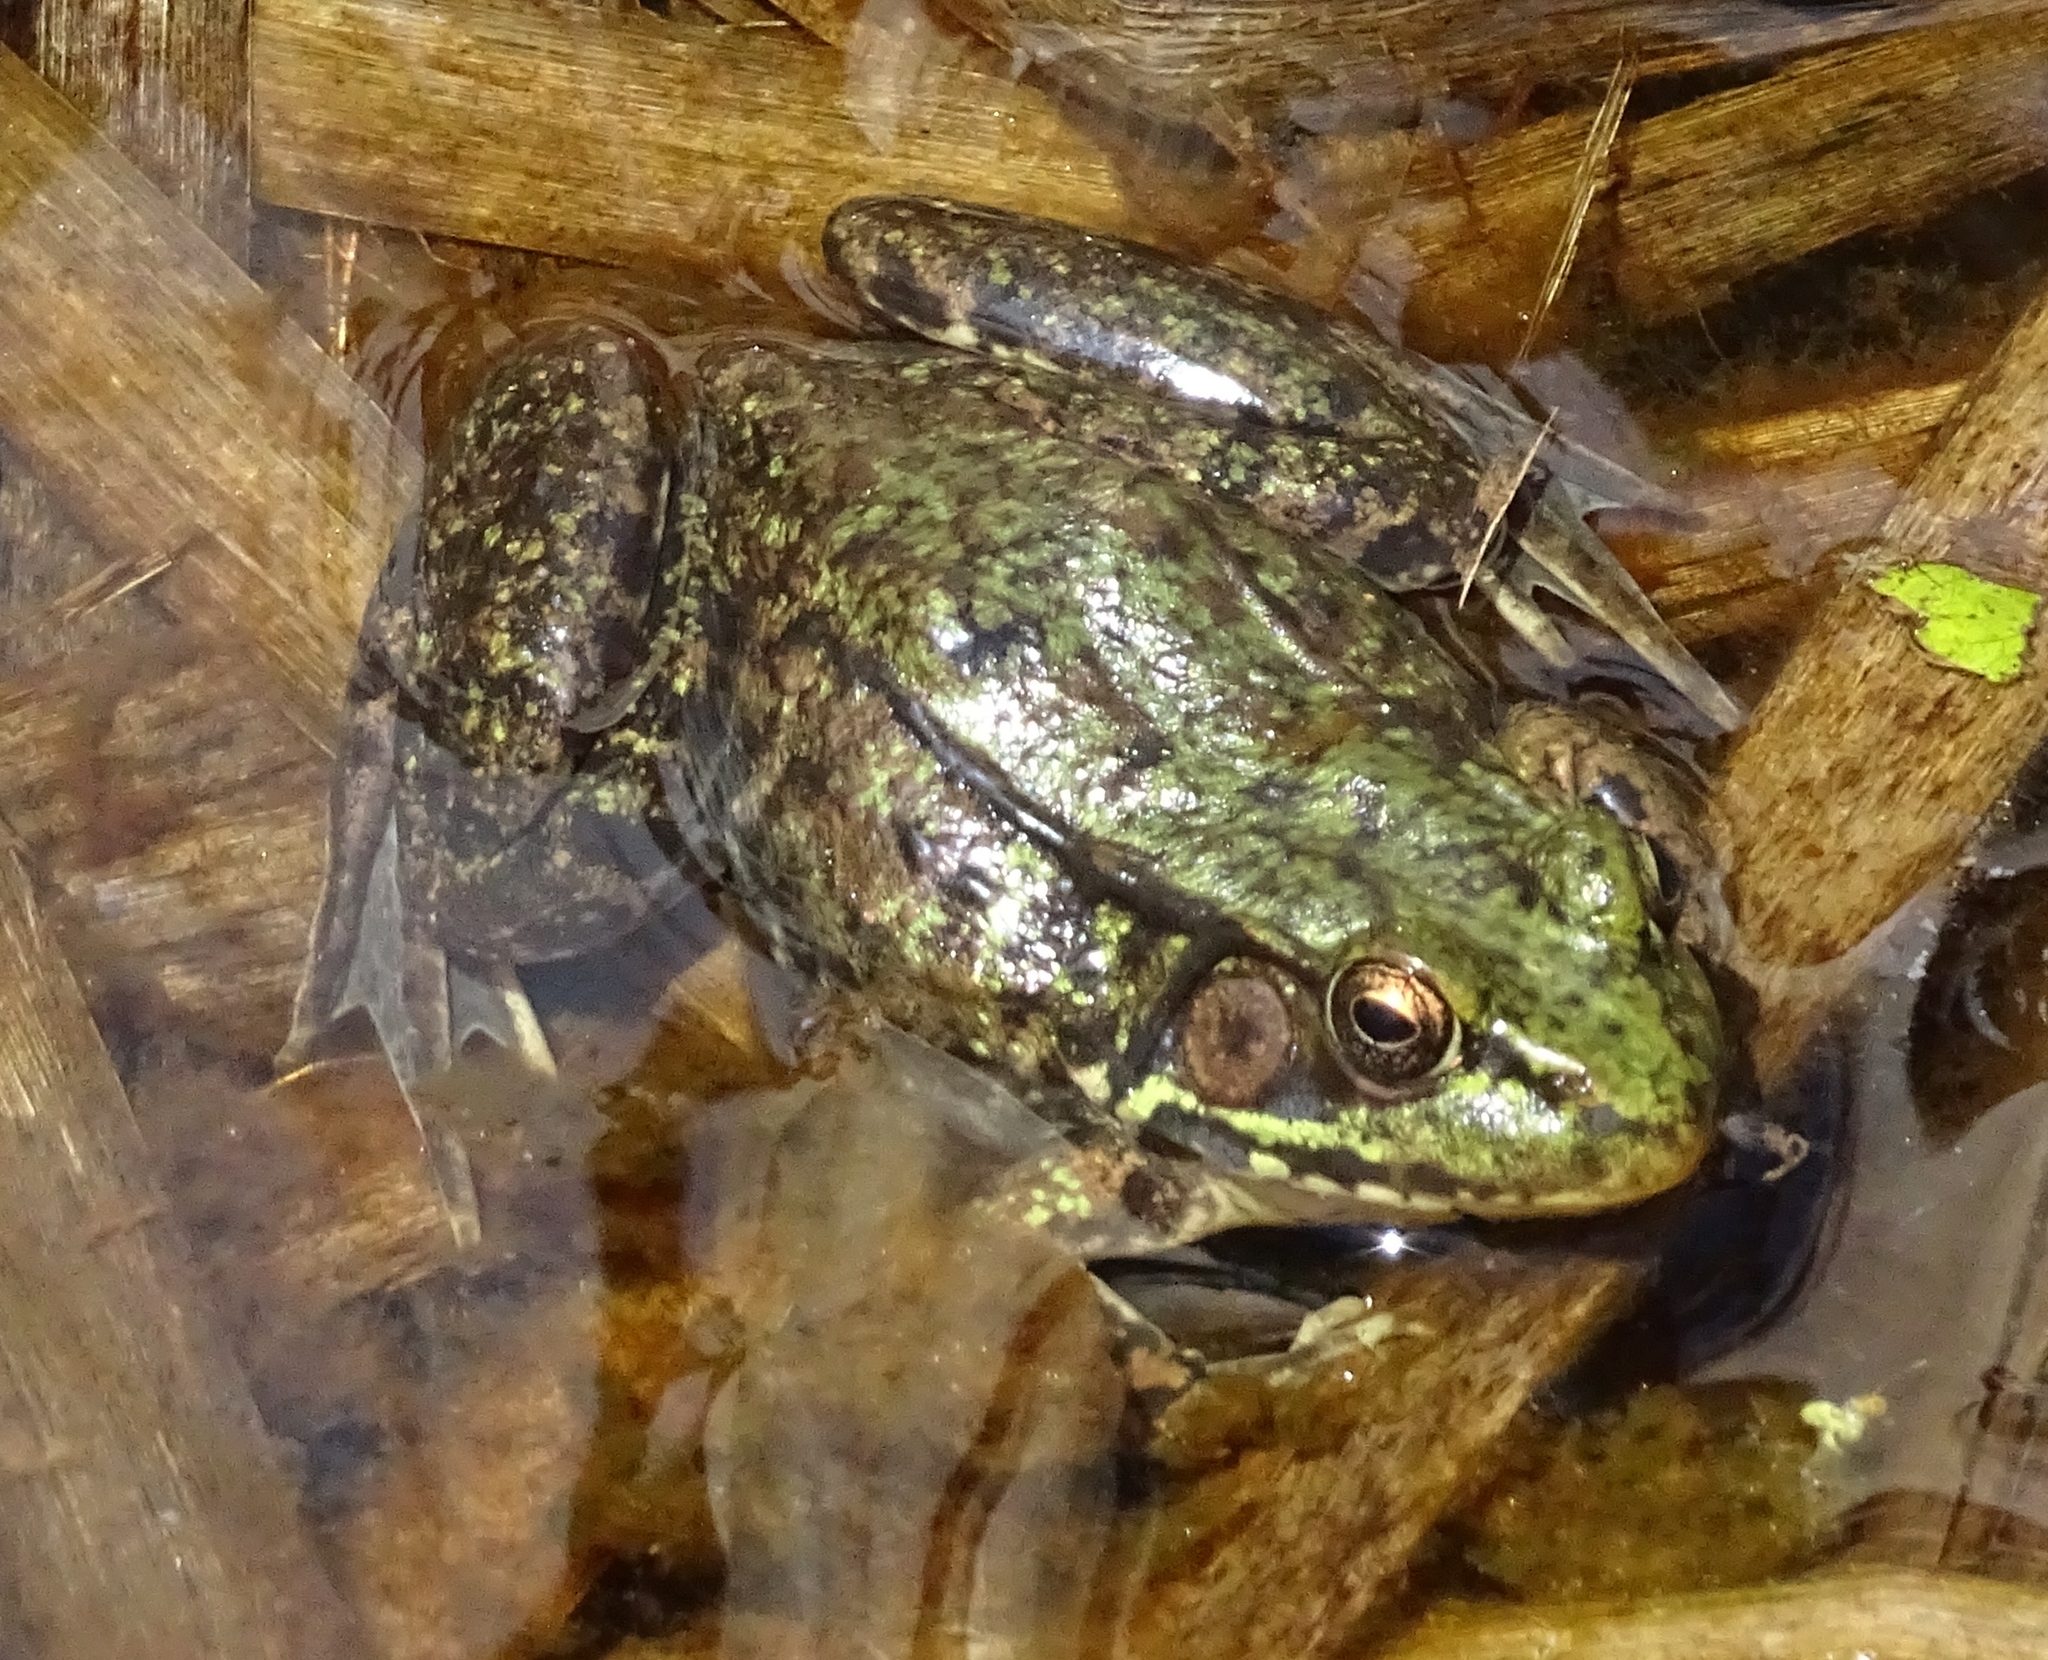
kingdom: Animalia
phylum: Chordata
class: Amphibia
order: Anura
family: Ranidae
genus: Lithobates
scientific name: Lithobates clamitans
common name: Green frog
